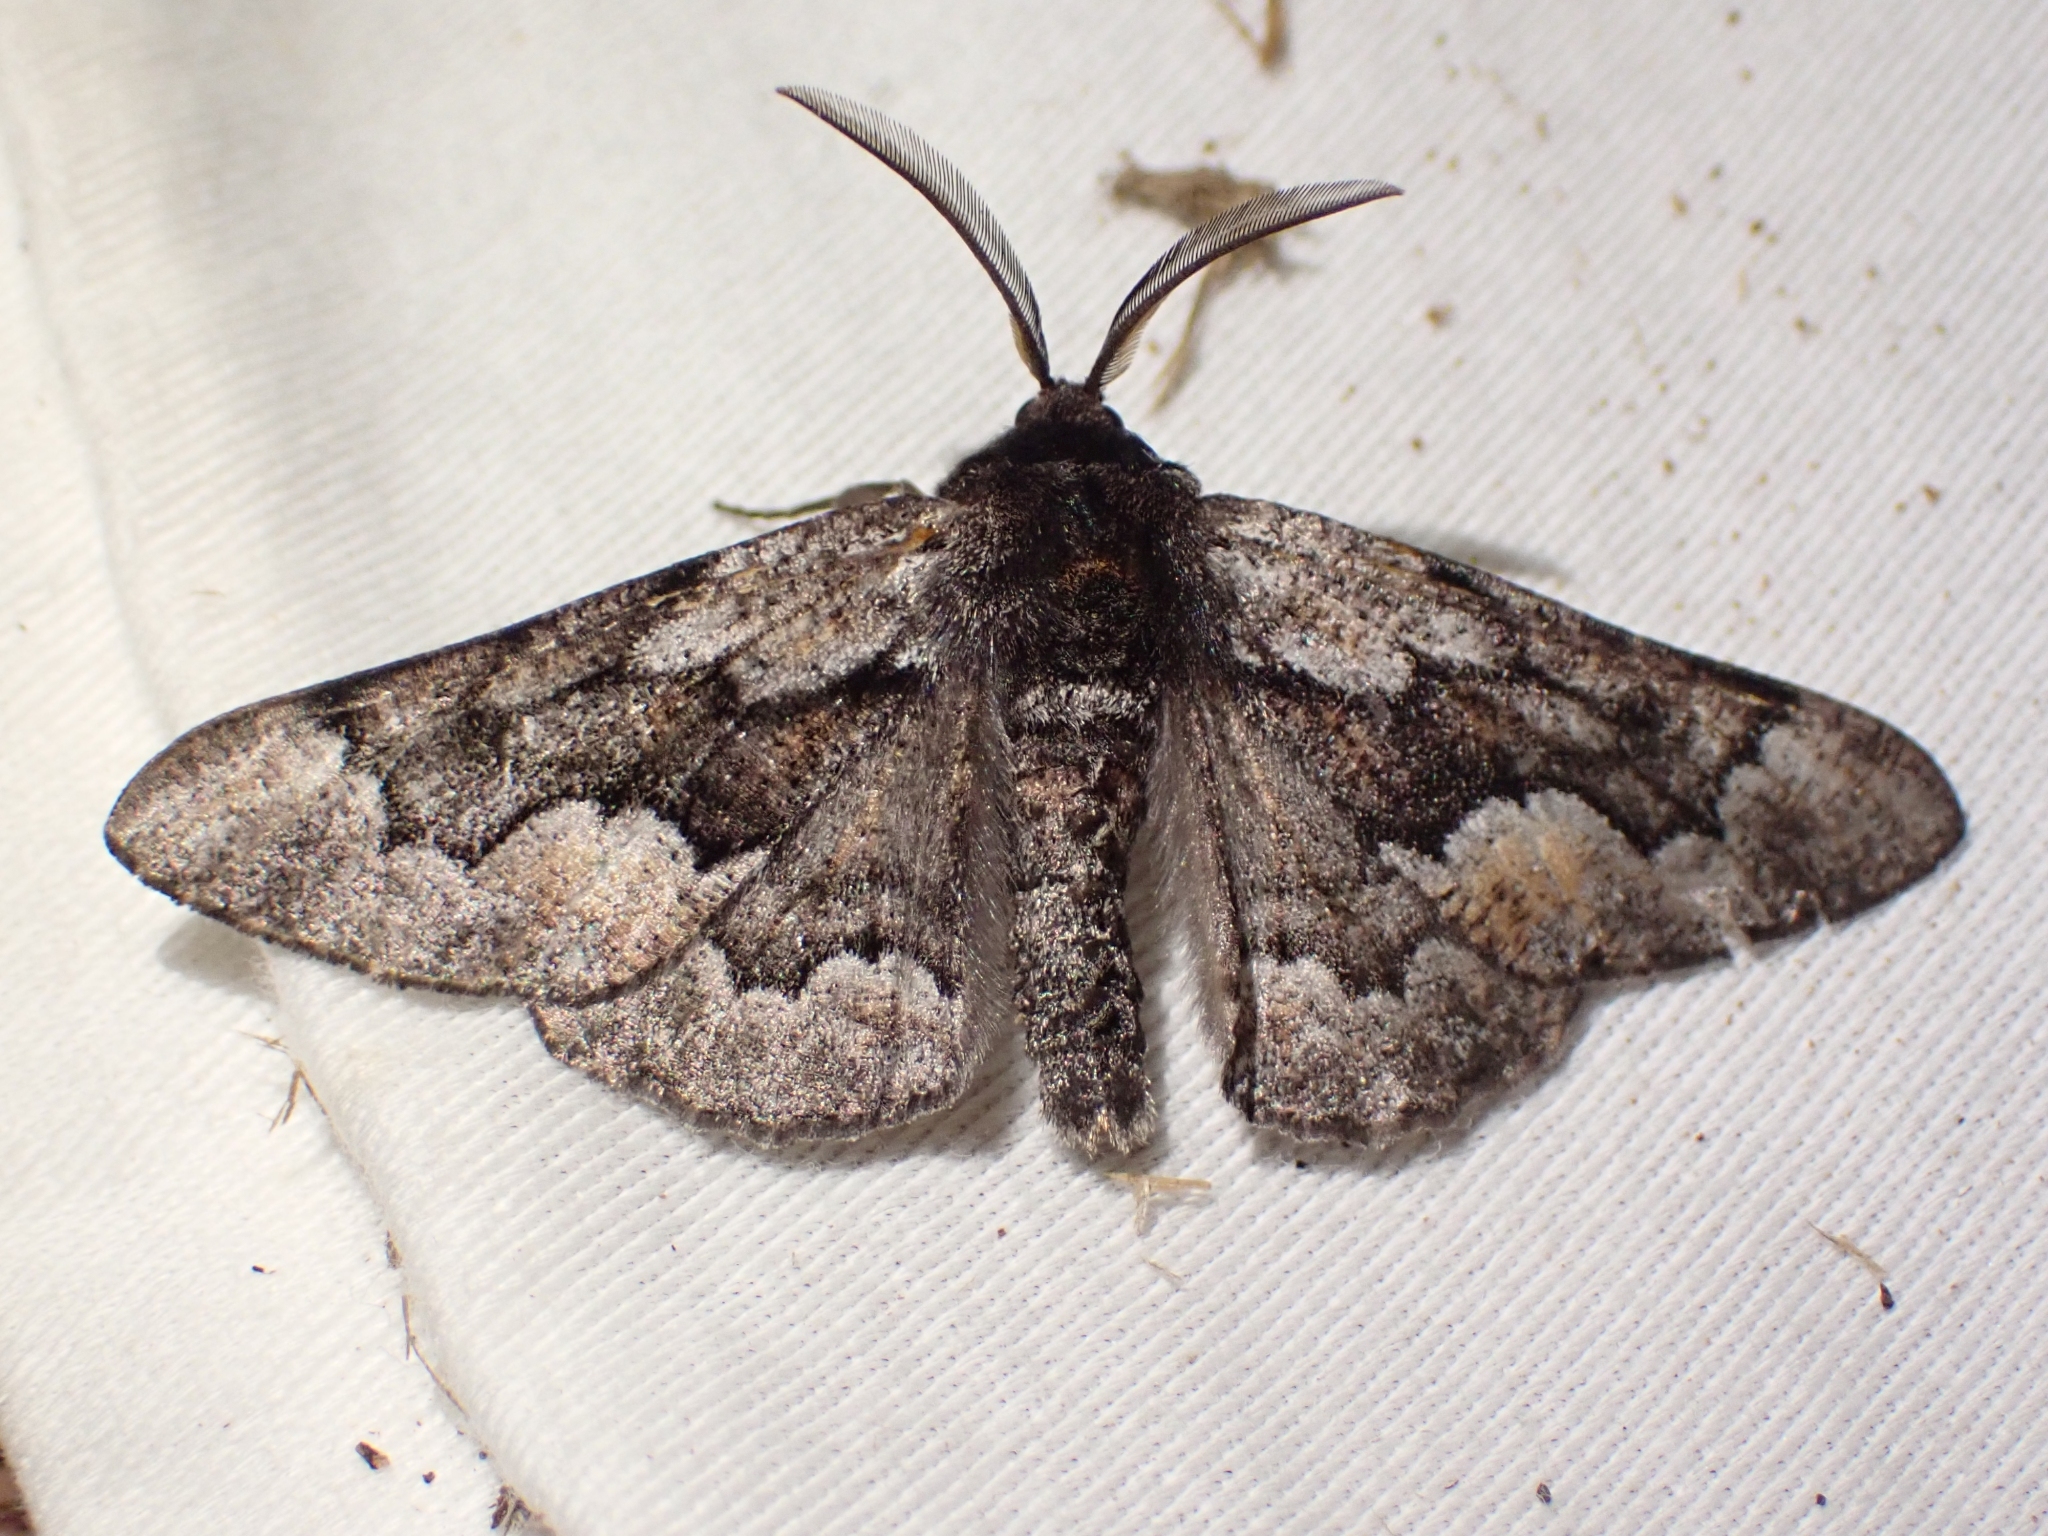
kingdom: Animalia
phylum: Arthropoda
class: Insecta
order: Lepidoptera
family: Geometridae
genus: Phaeoura
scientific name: Phaeoura mexicanaria
